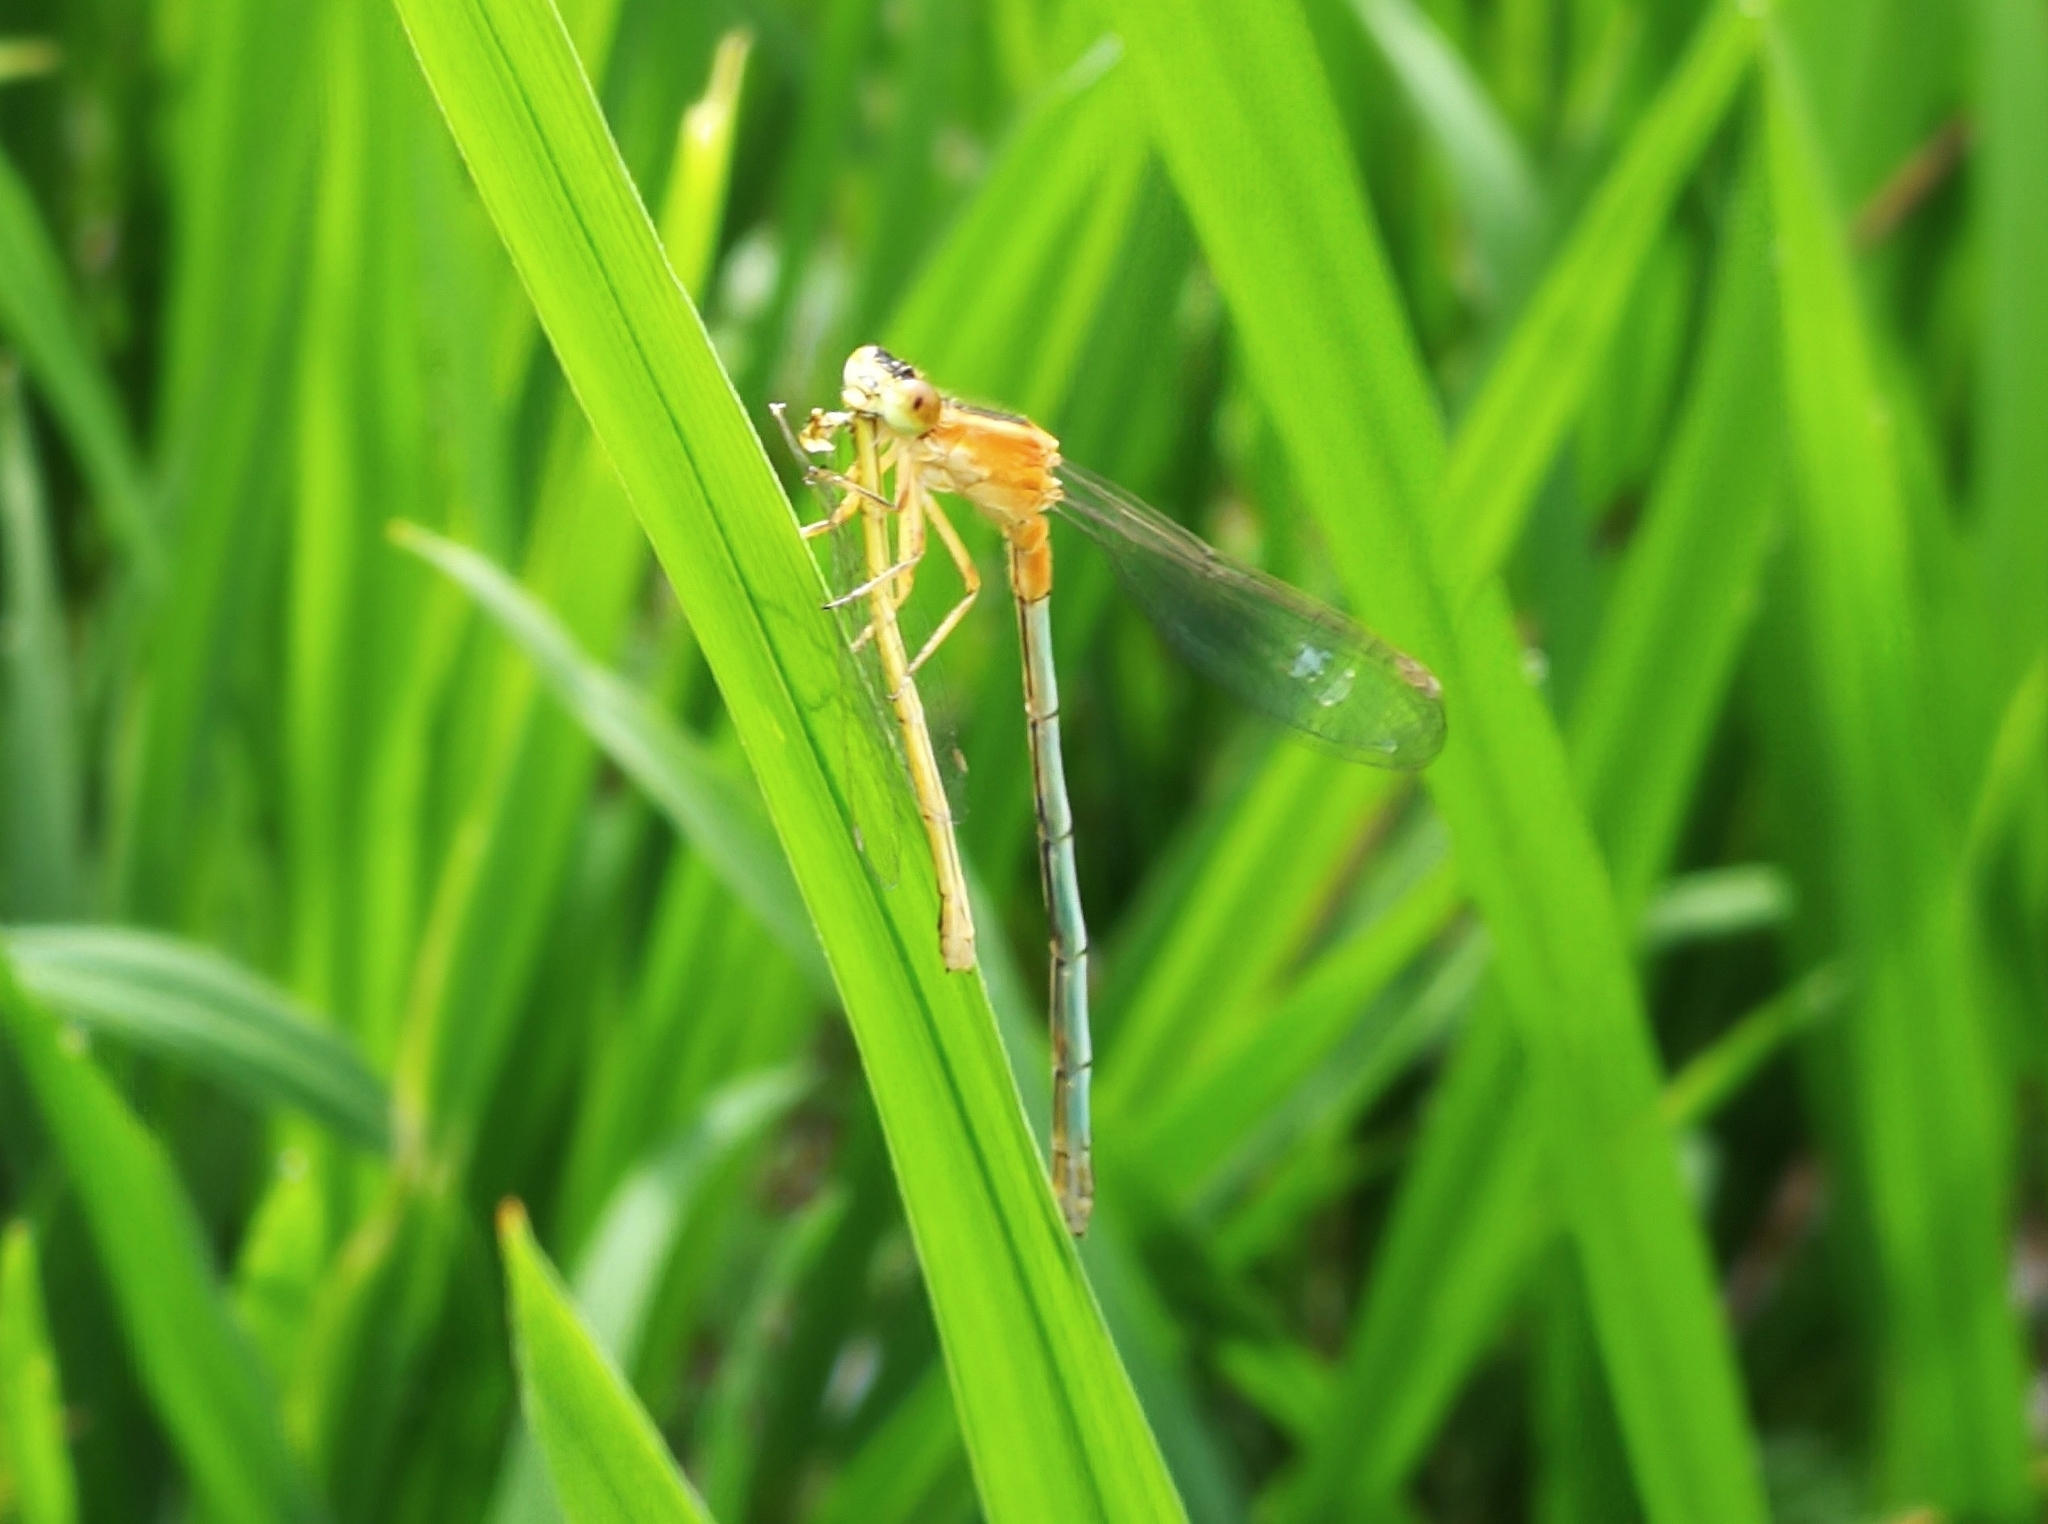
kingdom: Animalia
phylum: Arthropoda
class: Insecta
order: Odonata
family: Coenagrionidae
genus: Ischnura
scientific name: Ischnura senegalensis
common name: Tropical bluetail
